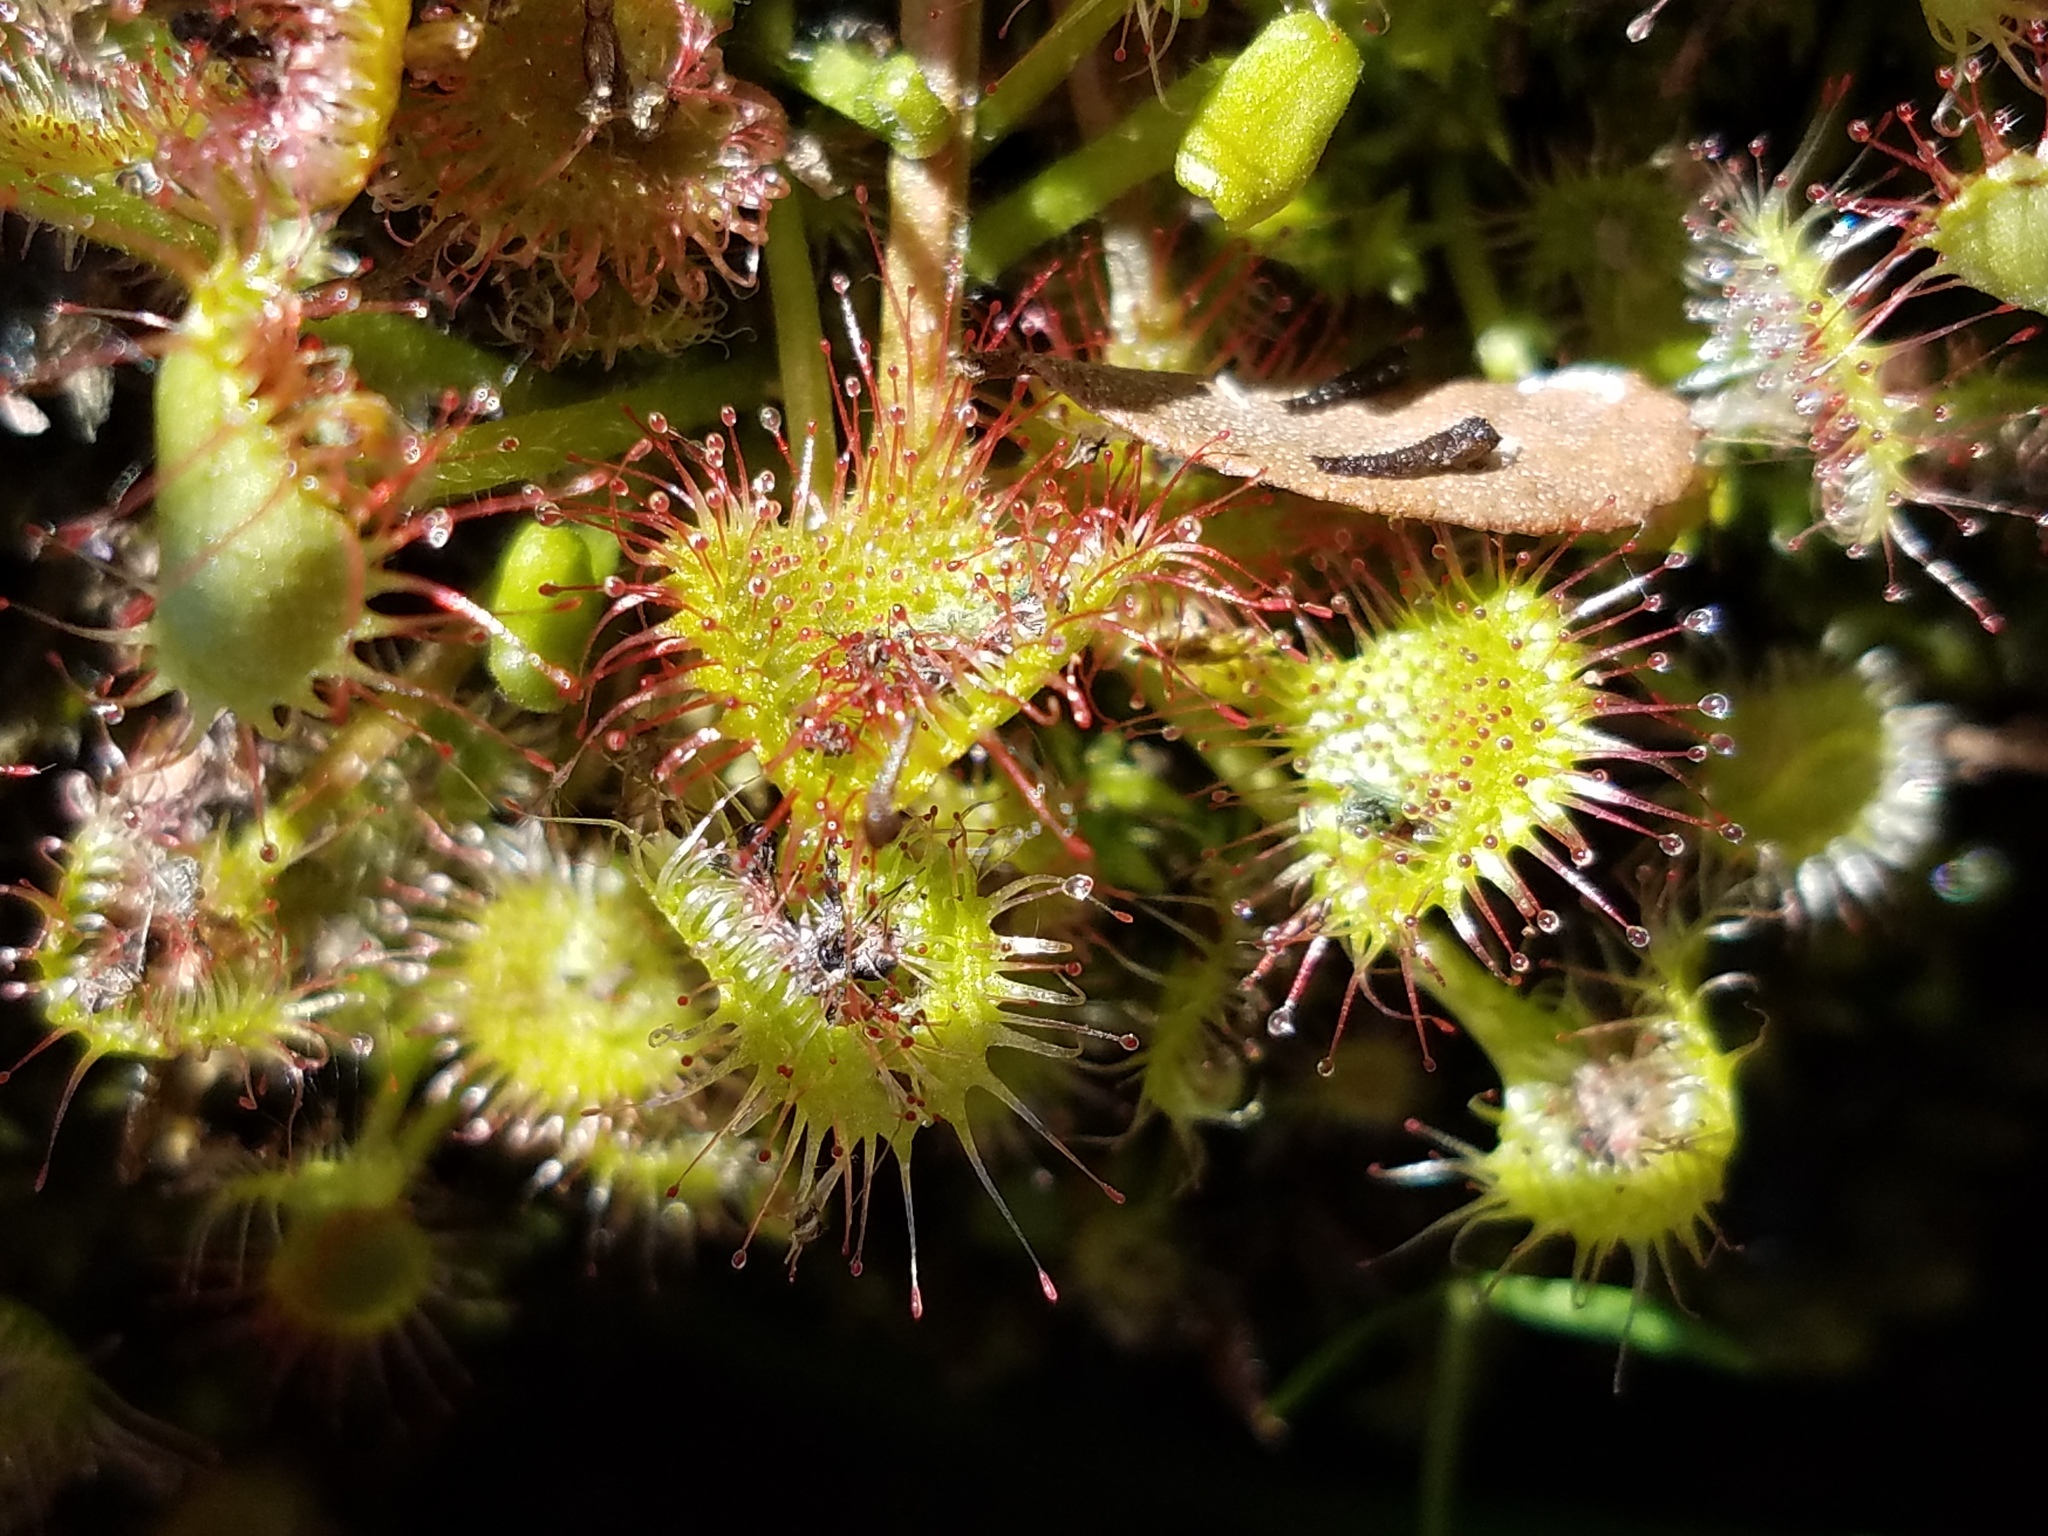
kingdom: Plantae
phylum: Tracheophyta
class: Magnoliopsida
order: Caryophyllales
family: Droseraceae
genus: Drosera
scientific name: Drosera rotundifolia
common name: Round-leaved sundew
